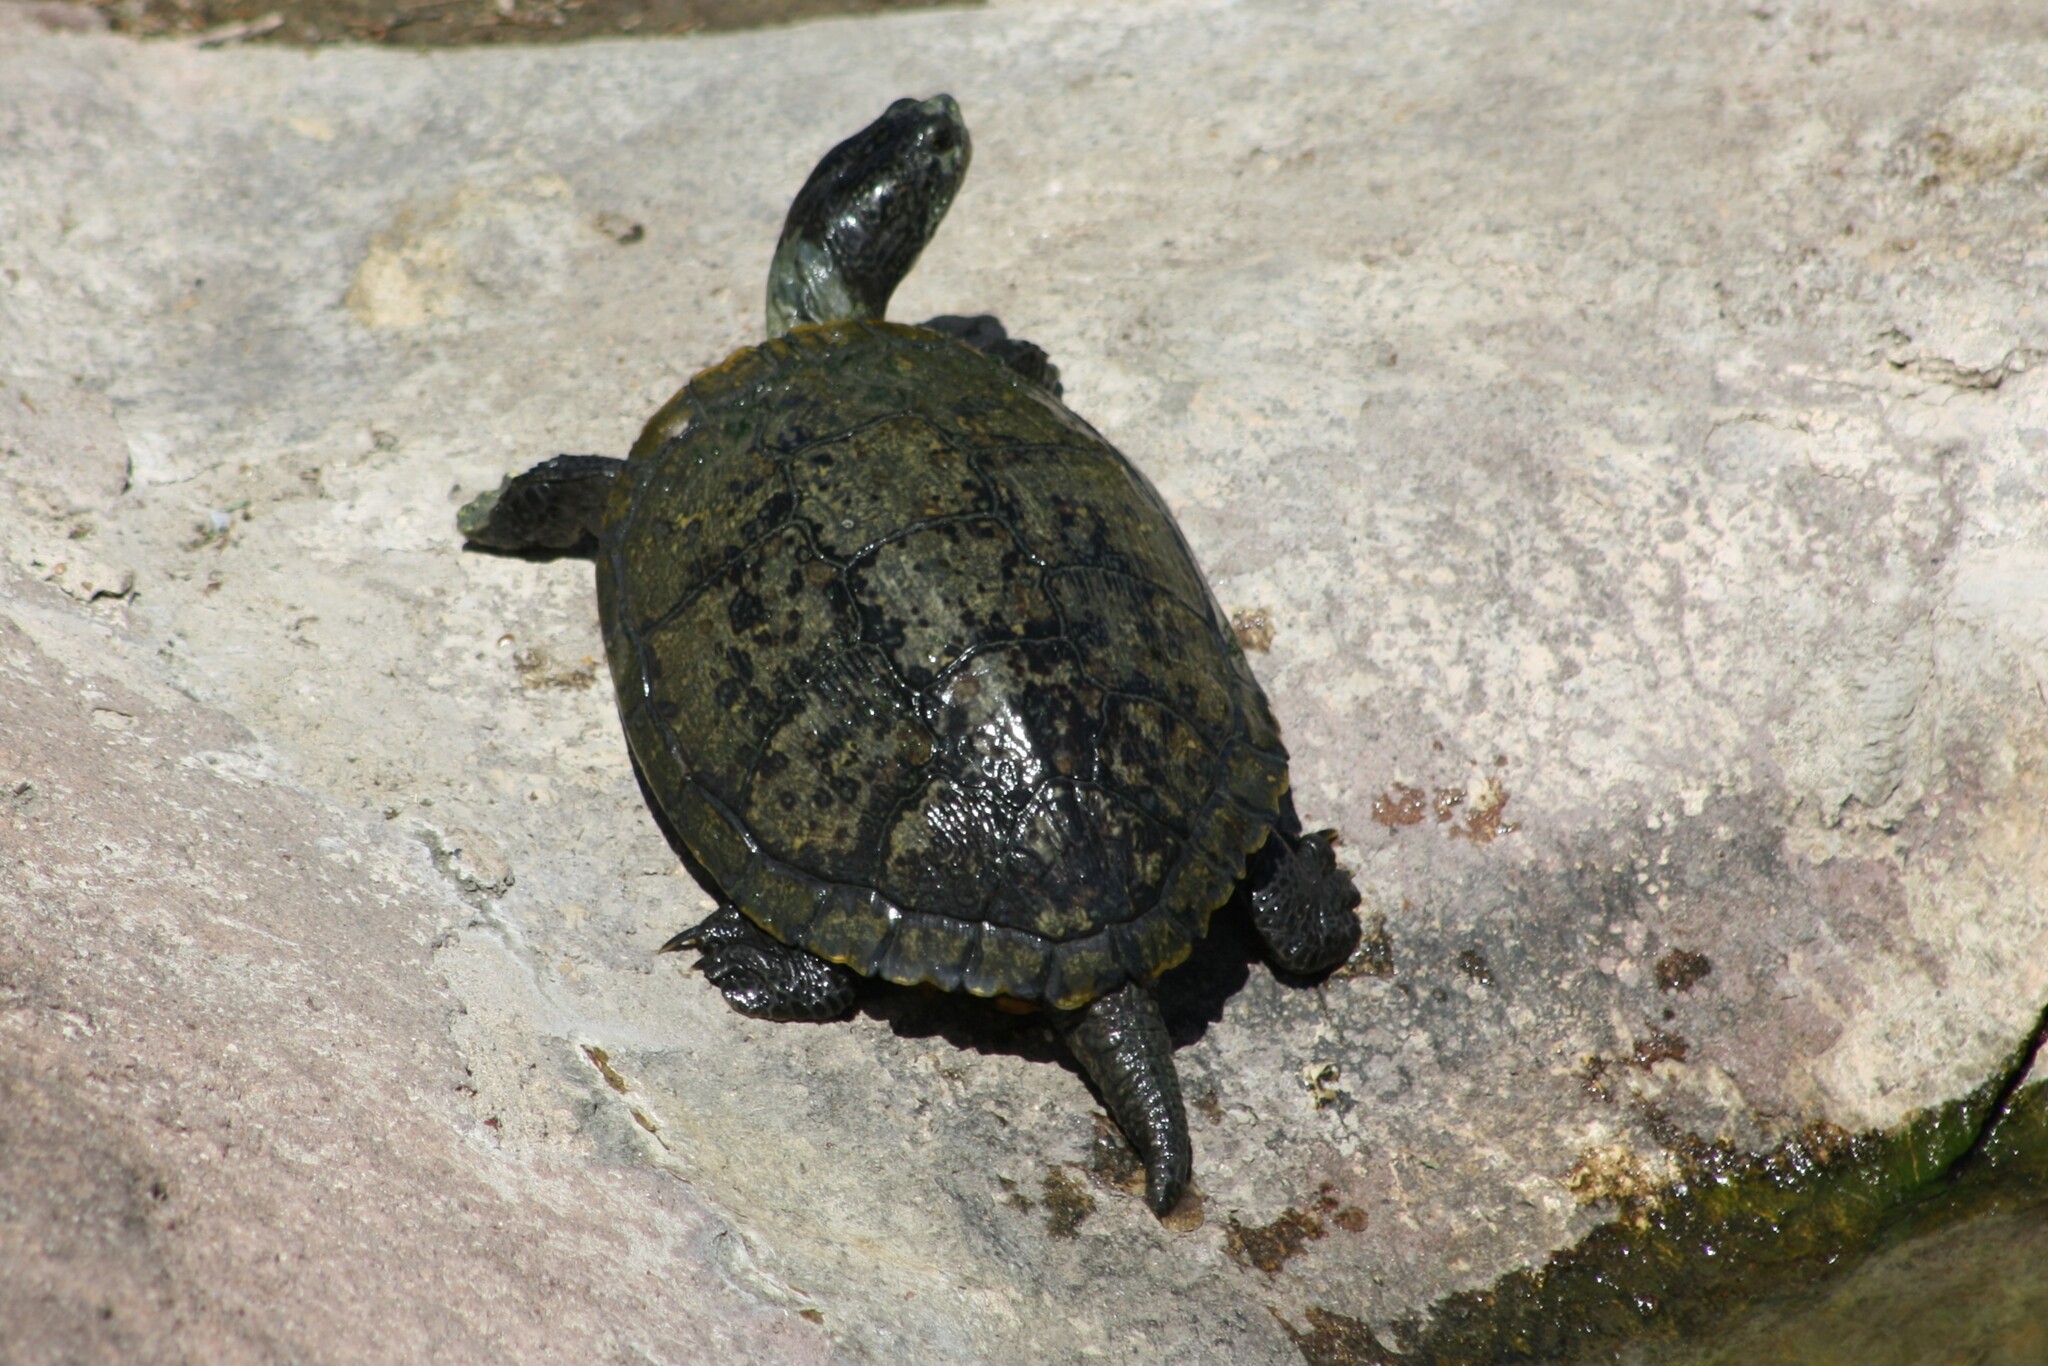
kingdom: Animalia
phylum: Chordata
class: Testudines
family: Emydidae
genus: Trachemys
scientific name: Trachemys scripta
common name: Slider
